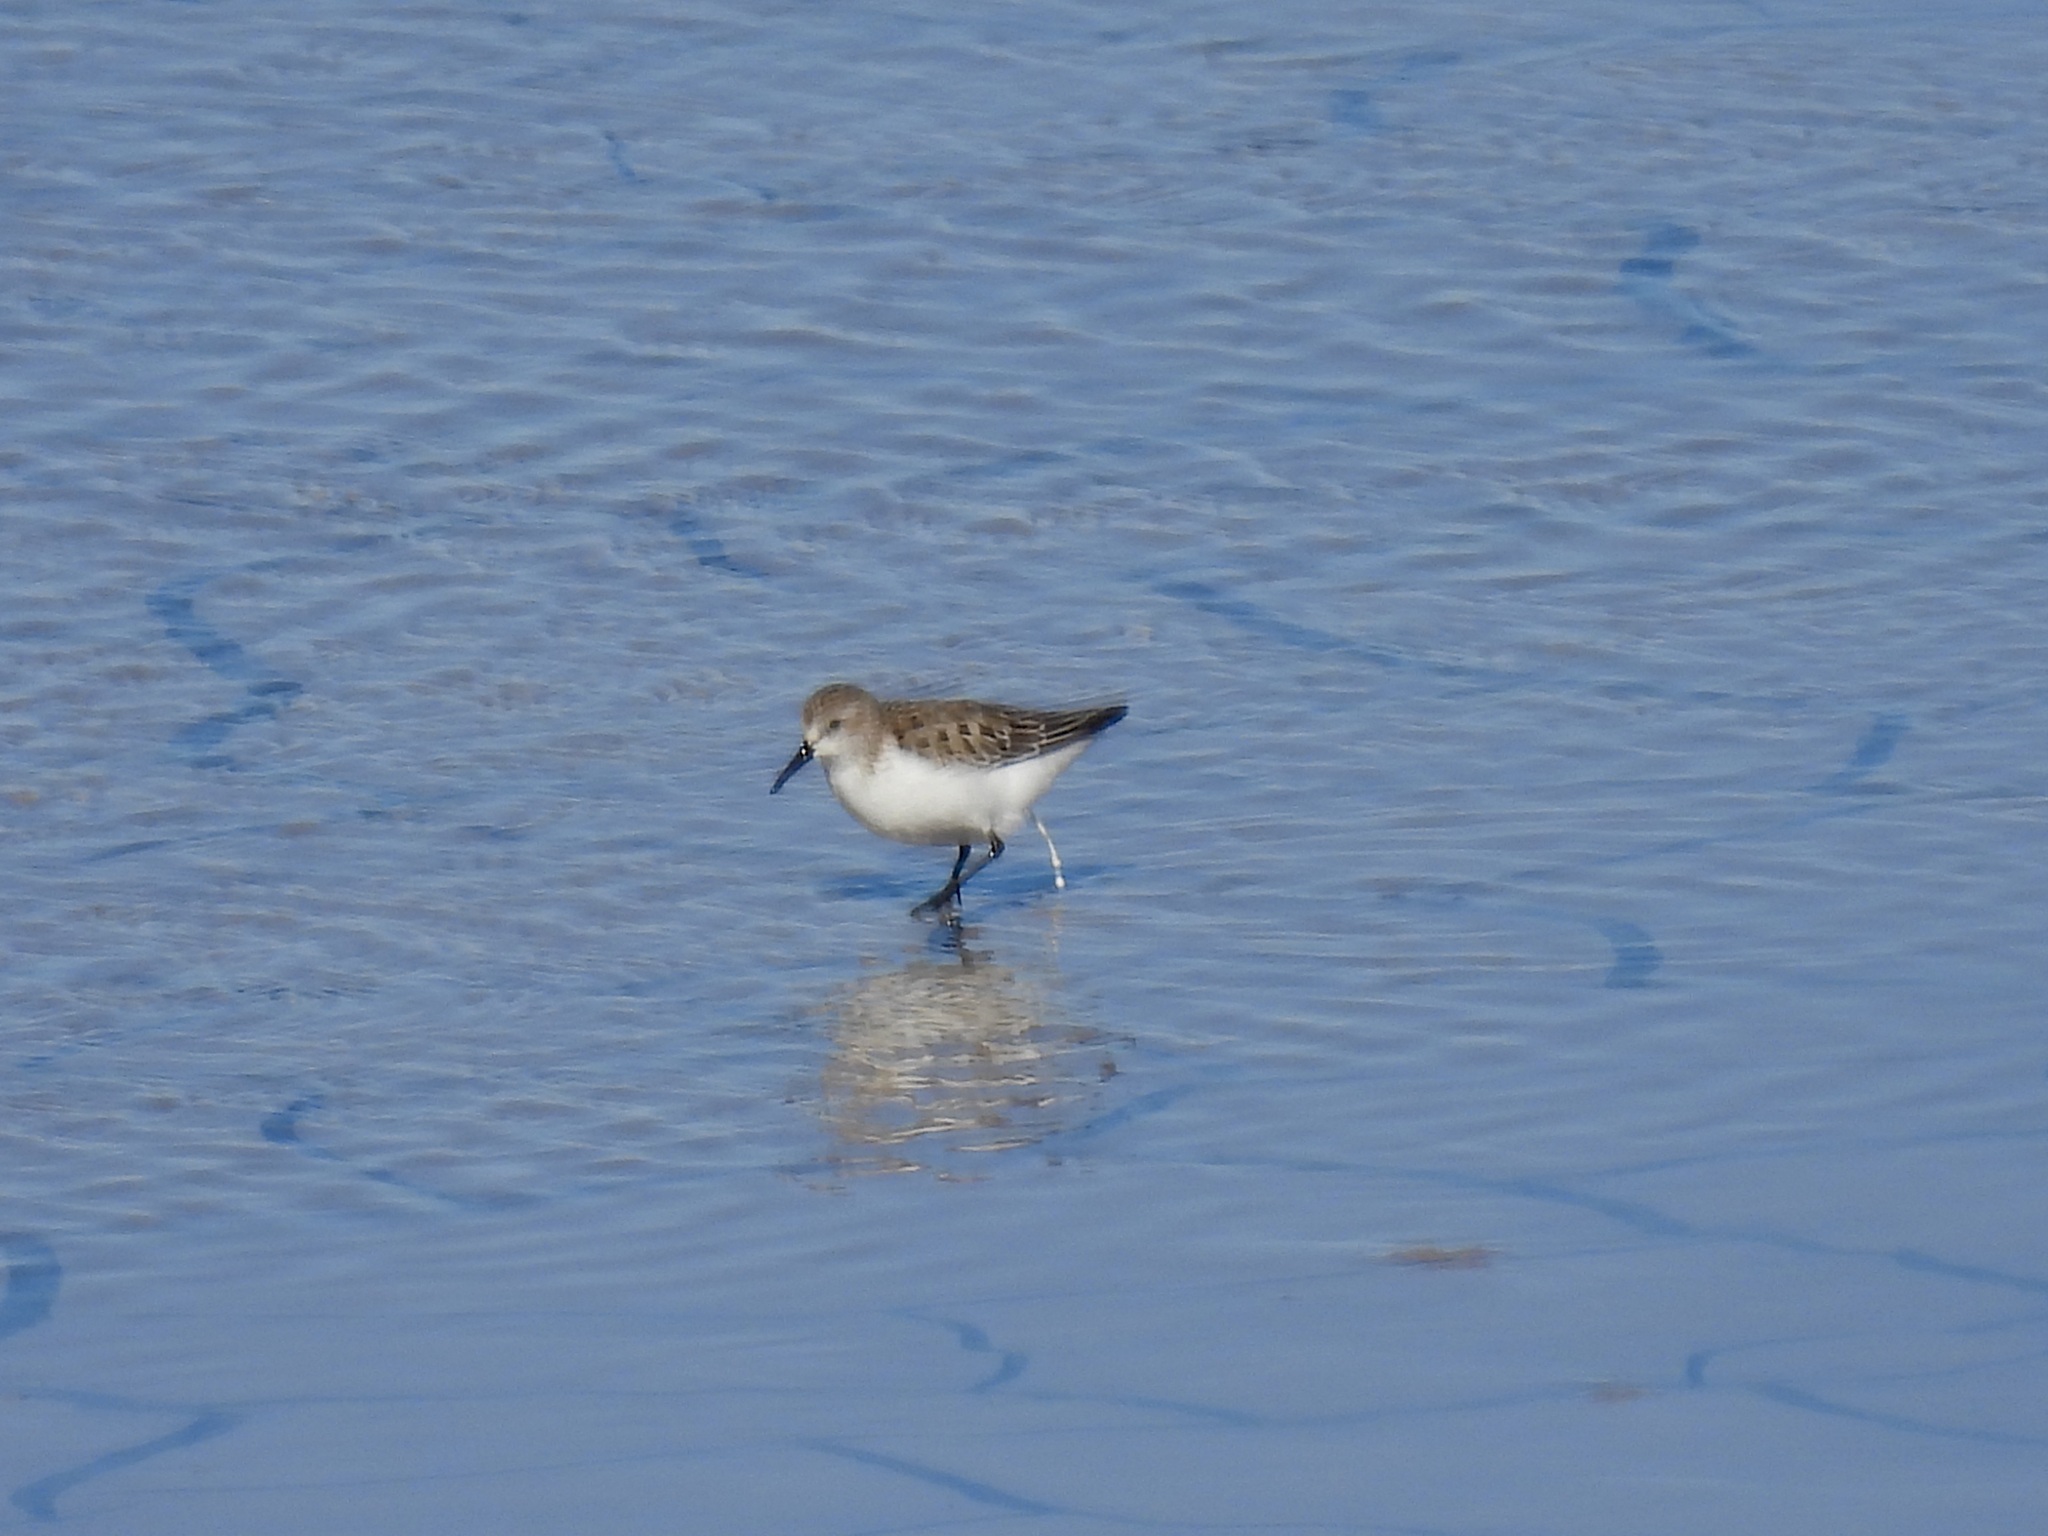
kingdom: Animalia
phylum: Chordata
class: Aves
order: Charadriiformes
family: Scolopacidae
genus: Calidris
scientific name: Calidris mauri
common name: Western sandpiper
